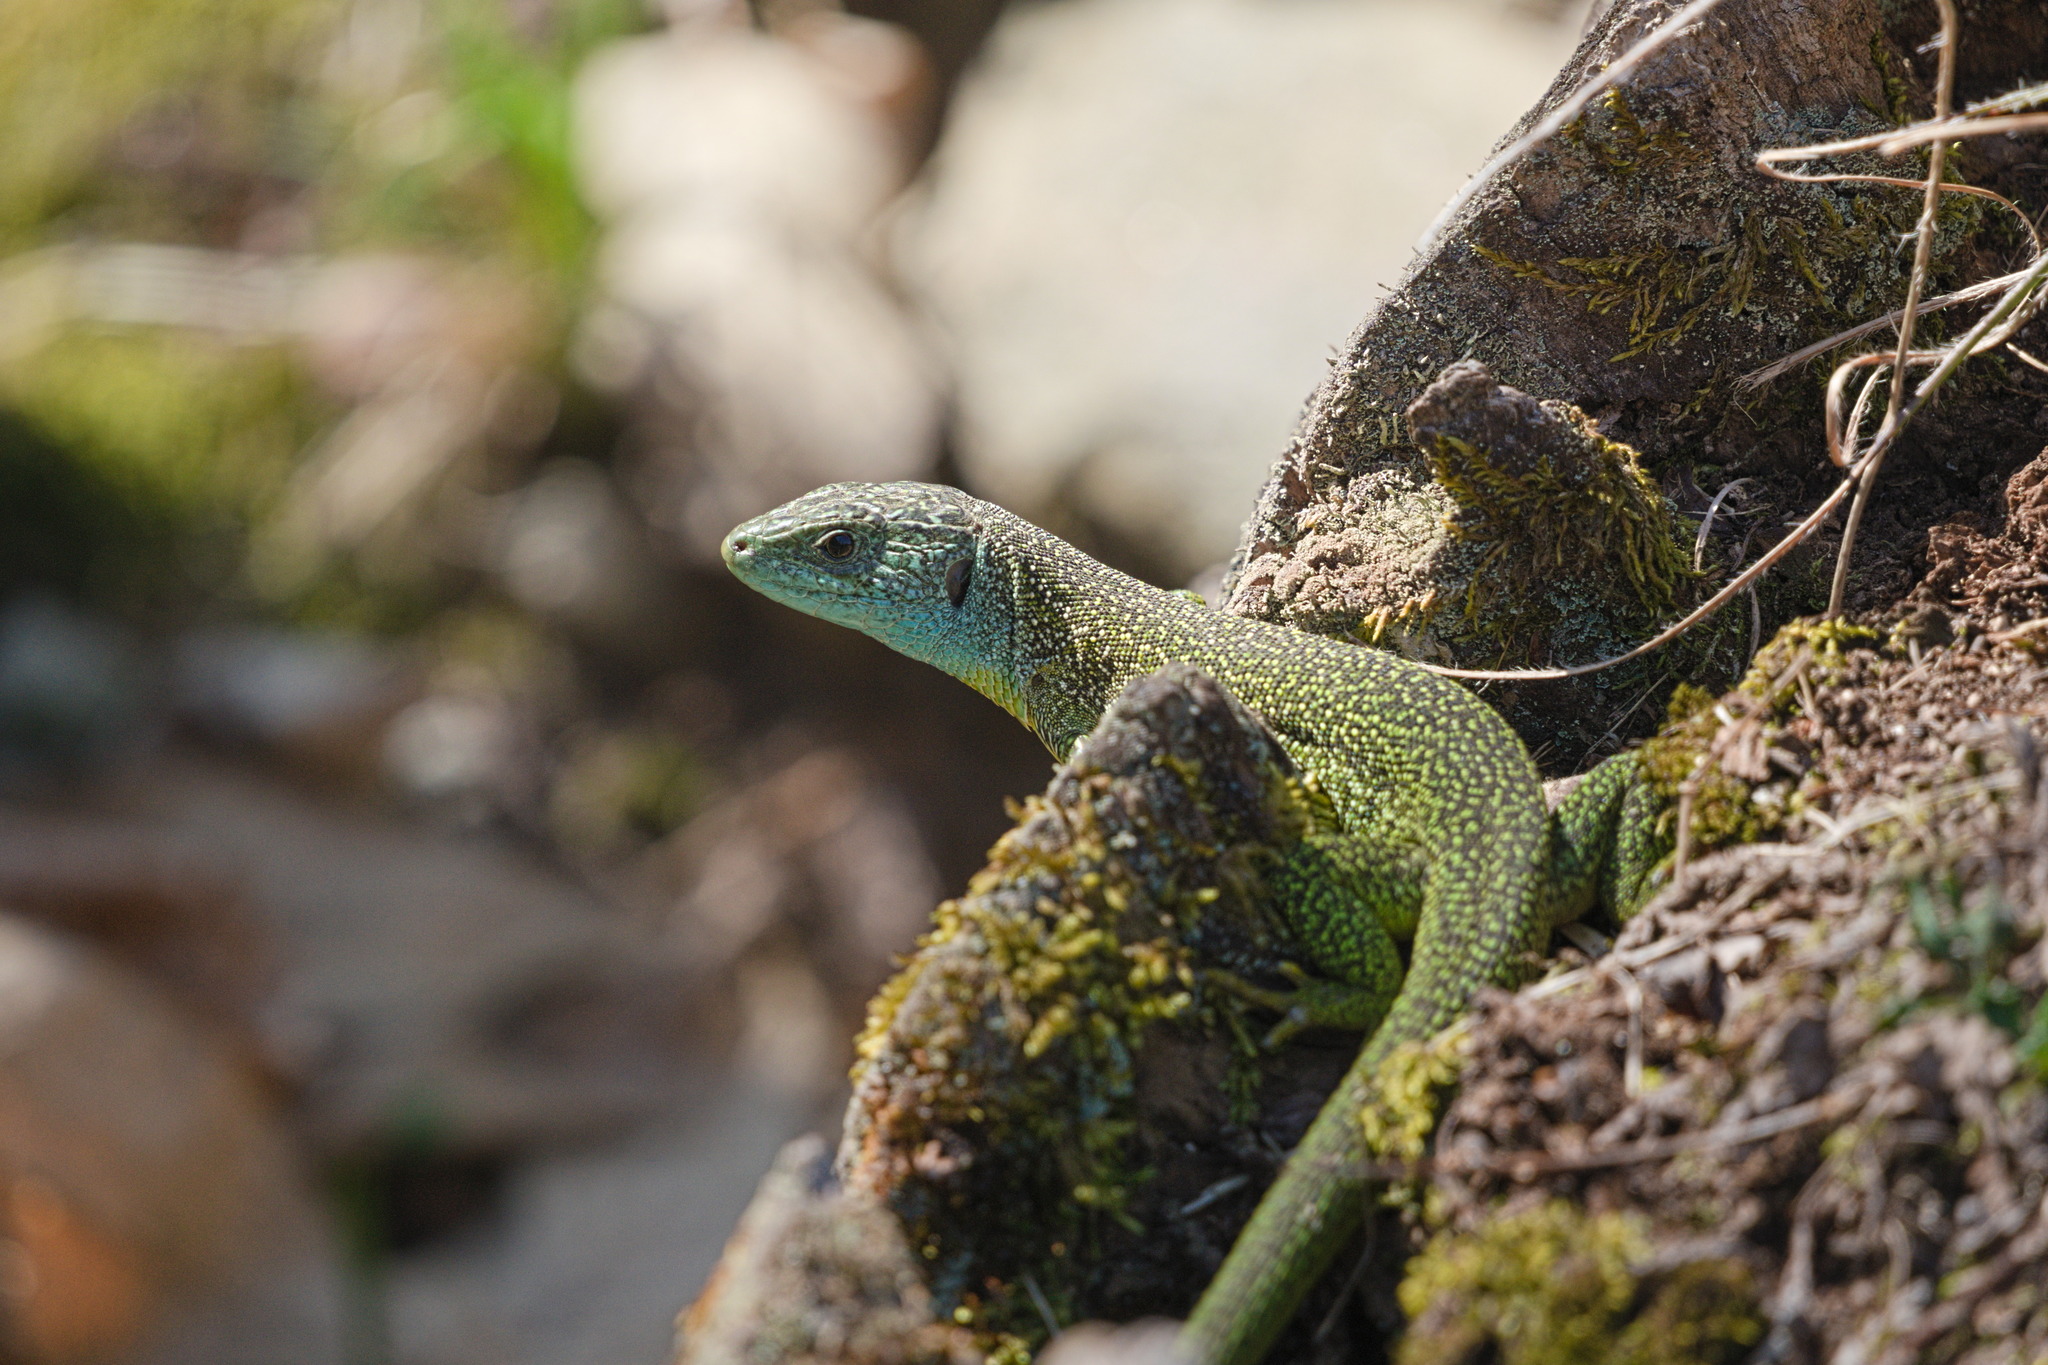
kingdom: Animalia
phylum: Chordata
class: Squamata
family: Lacertidae
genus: Lacerta
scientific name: Lacerta bilineata
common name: Western green lizard
